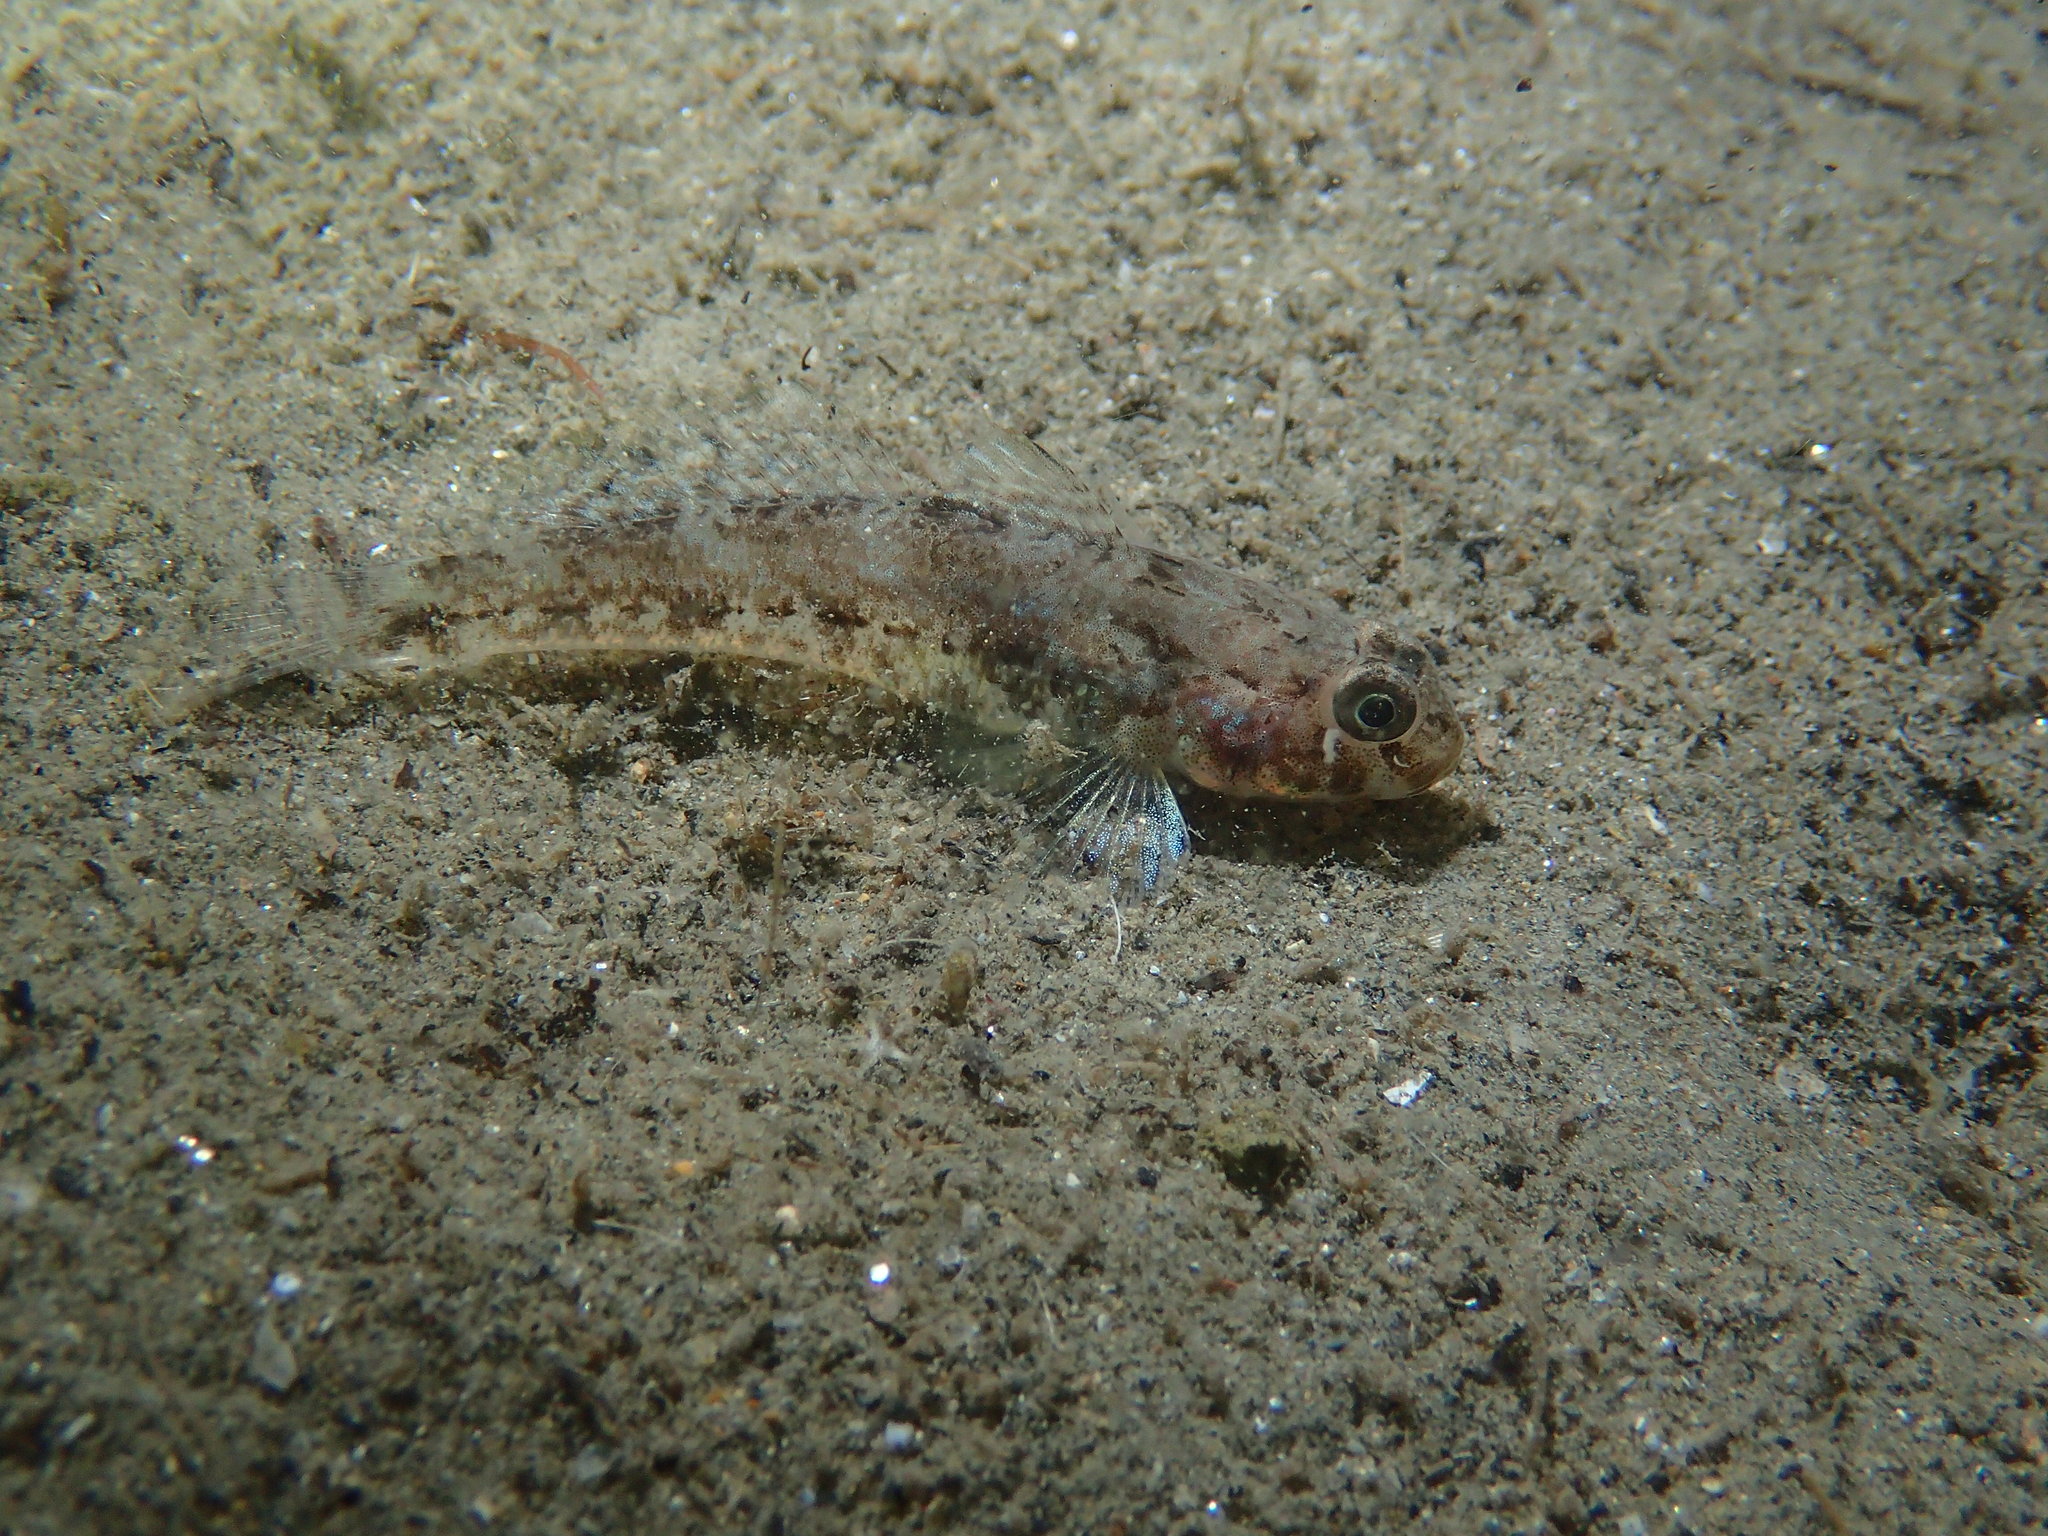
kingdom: Animalia
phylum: Chordata
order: Perciformes
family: Gobiidae
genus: Gobius
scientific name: Gobius niger
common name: Black goby
